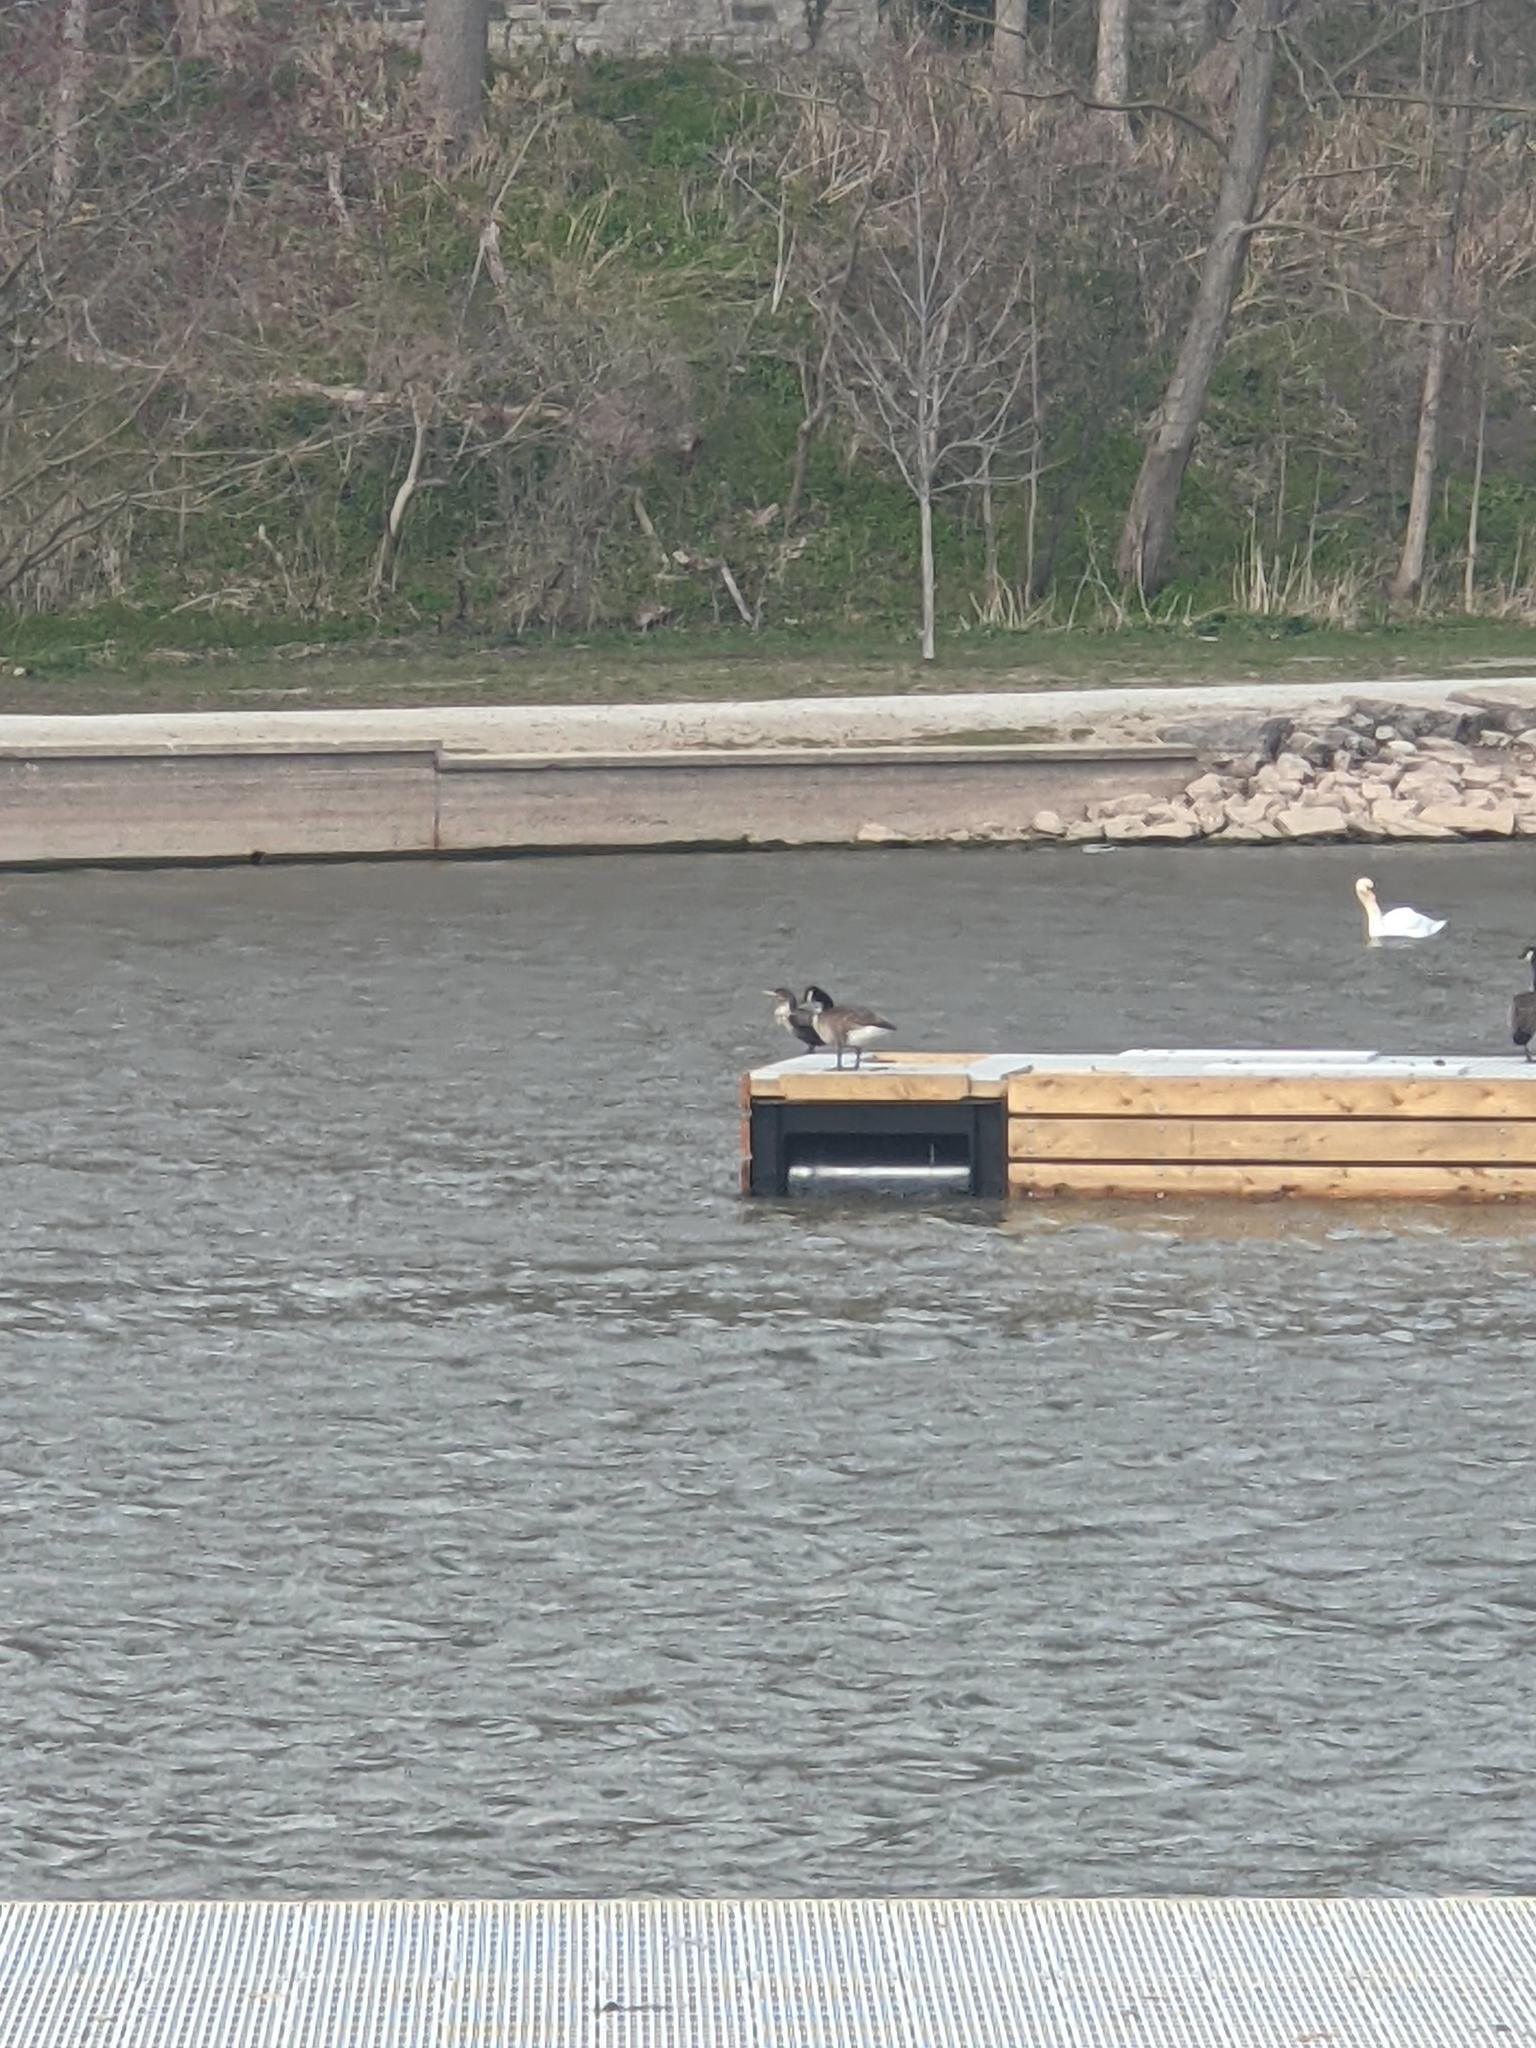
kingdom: Animalia
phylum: Chordata
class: Aves
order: Anseriformes
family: Anatidae
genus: Branta
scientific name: Branta canadensis
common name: Canada goose
